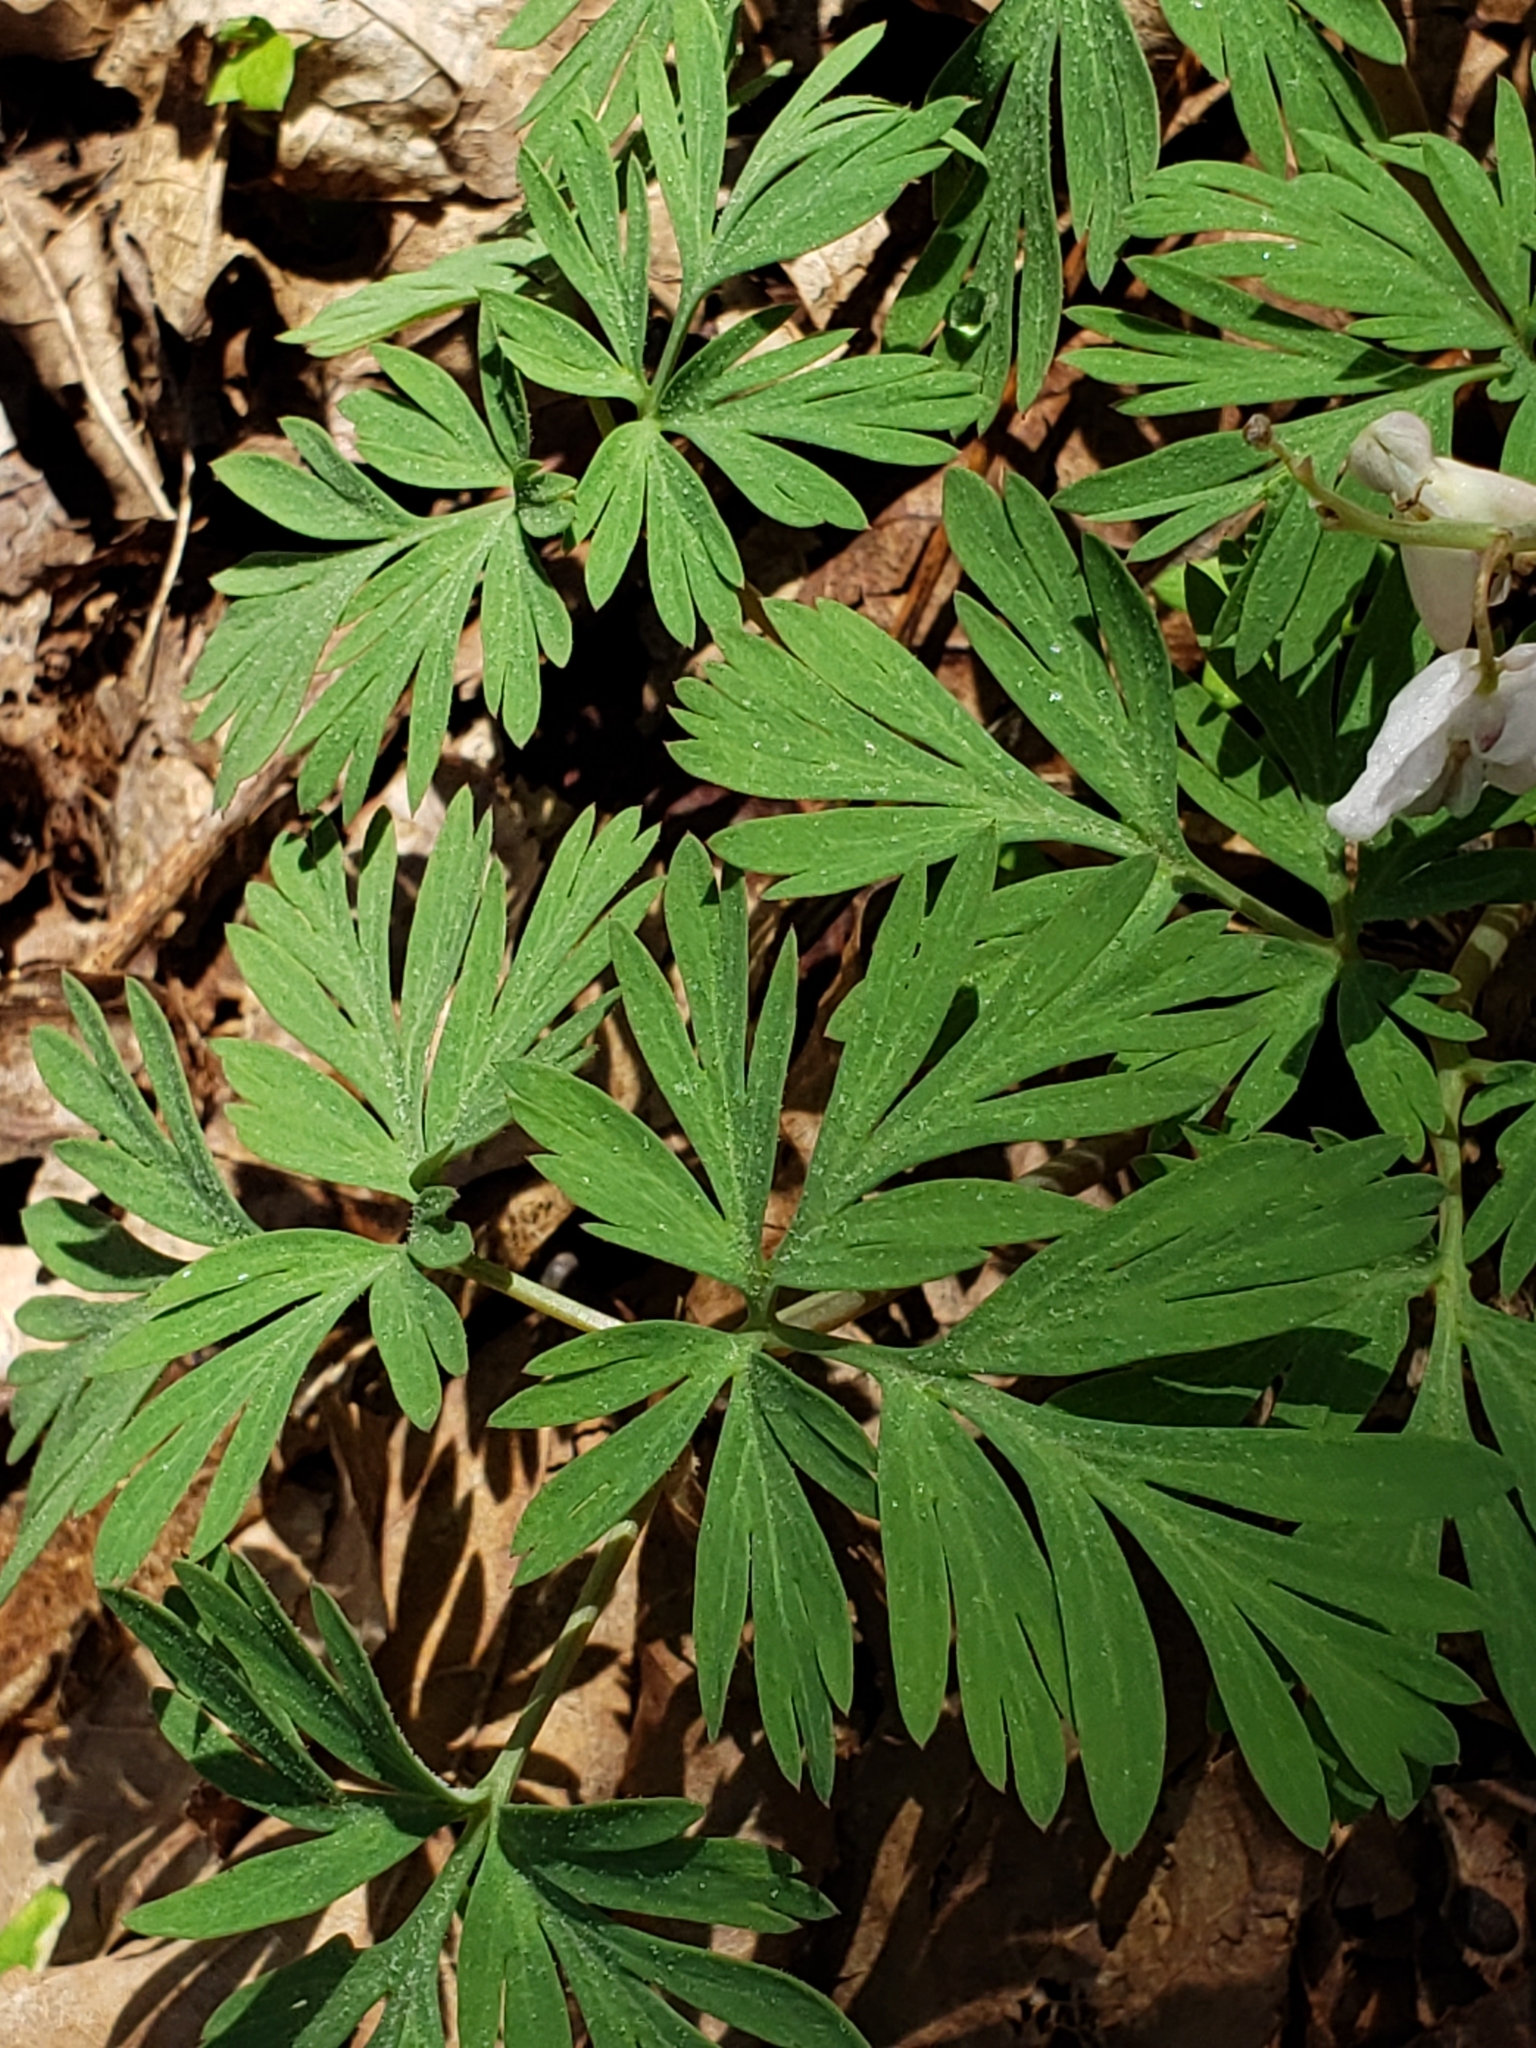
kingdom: Plantae
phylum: Tracheophyta
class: Magnoliopsida
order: Ranunculales
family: Papaveraceae
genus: Dicentra
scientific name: Dicentra cucullaria
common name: Dutchman's breeches
